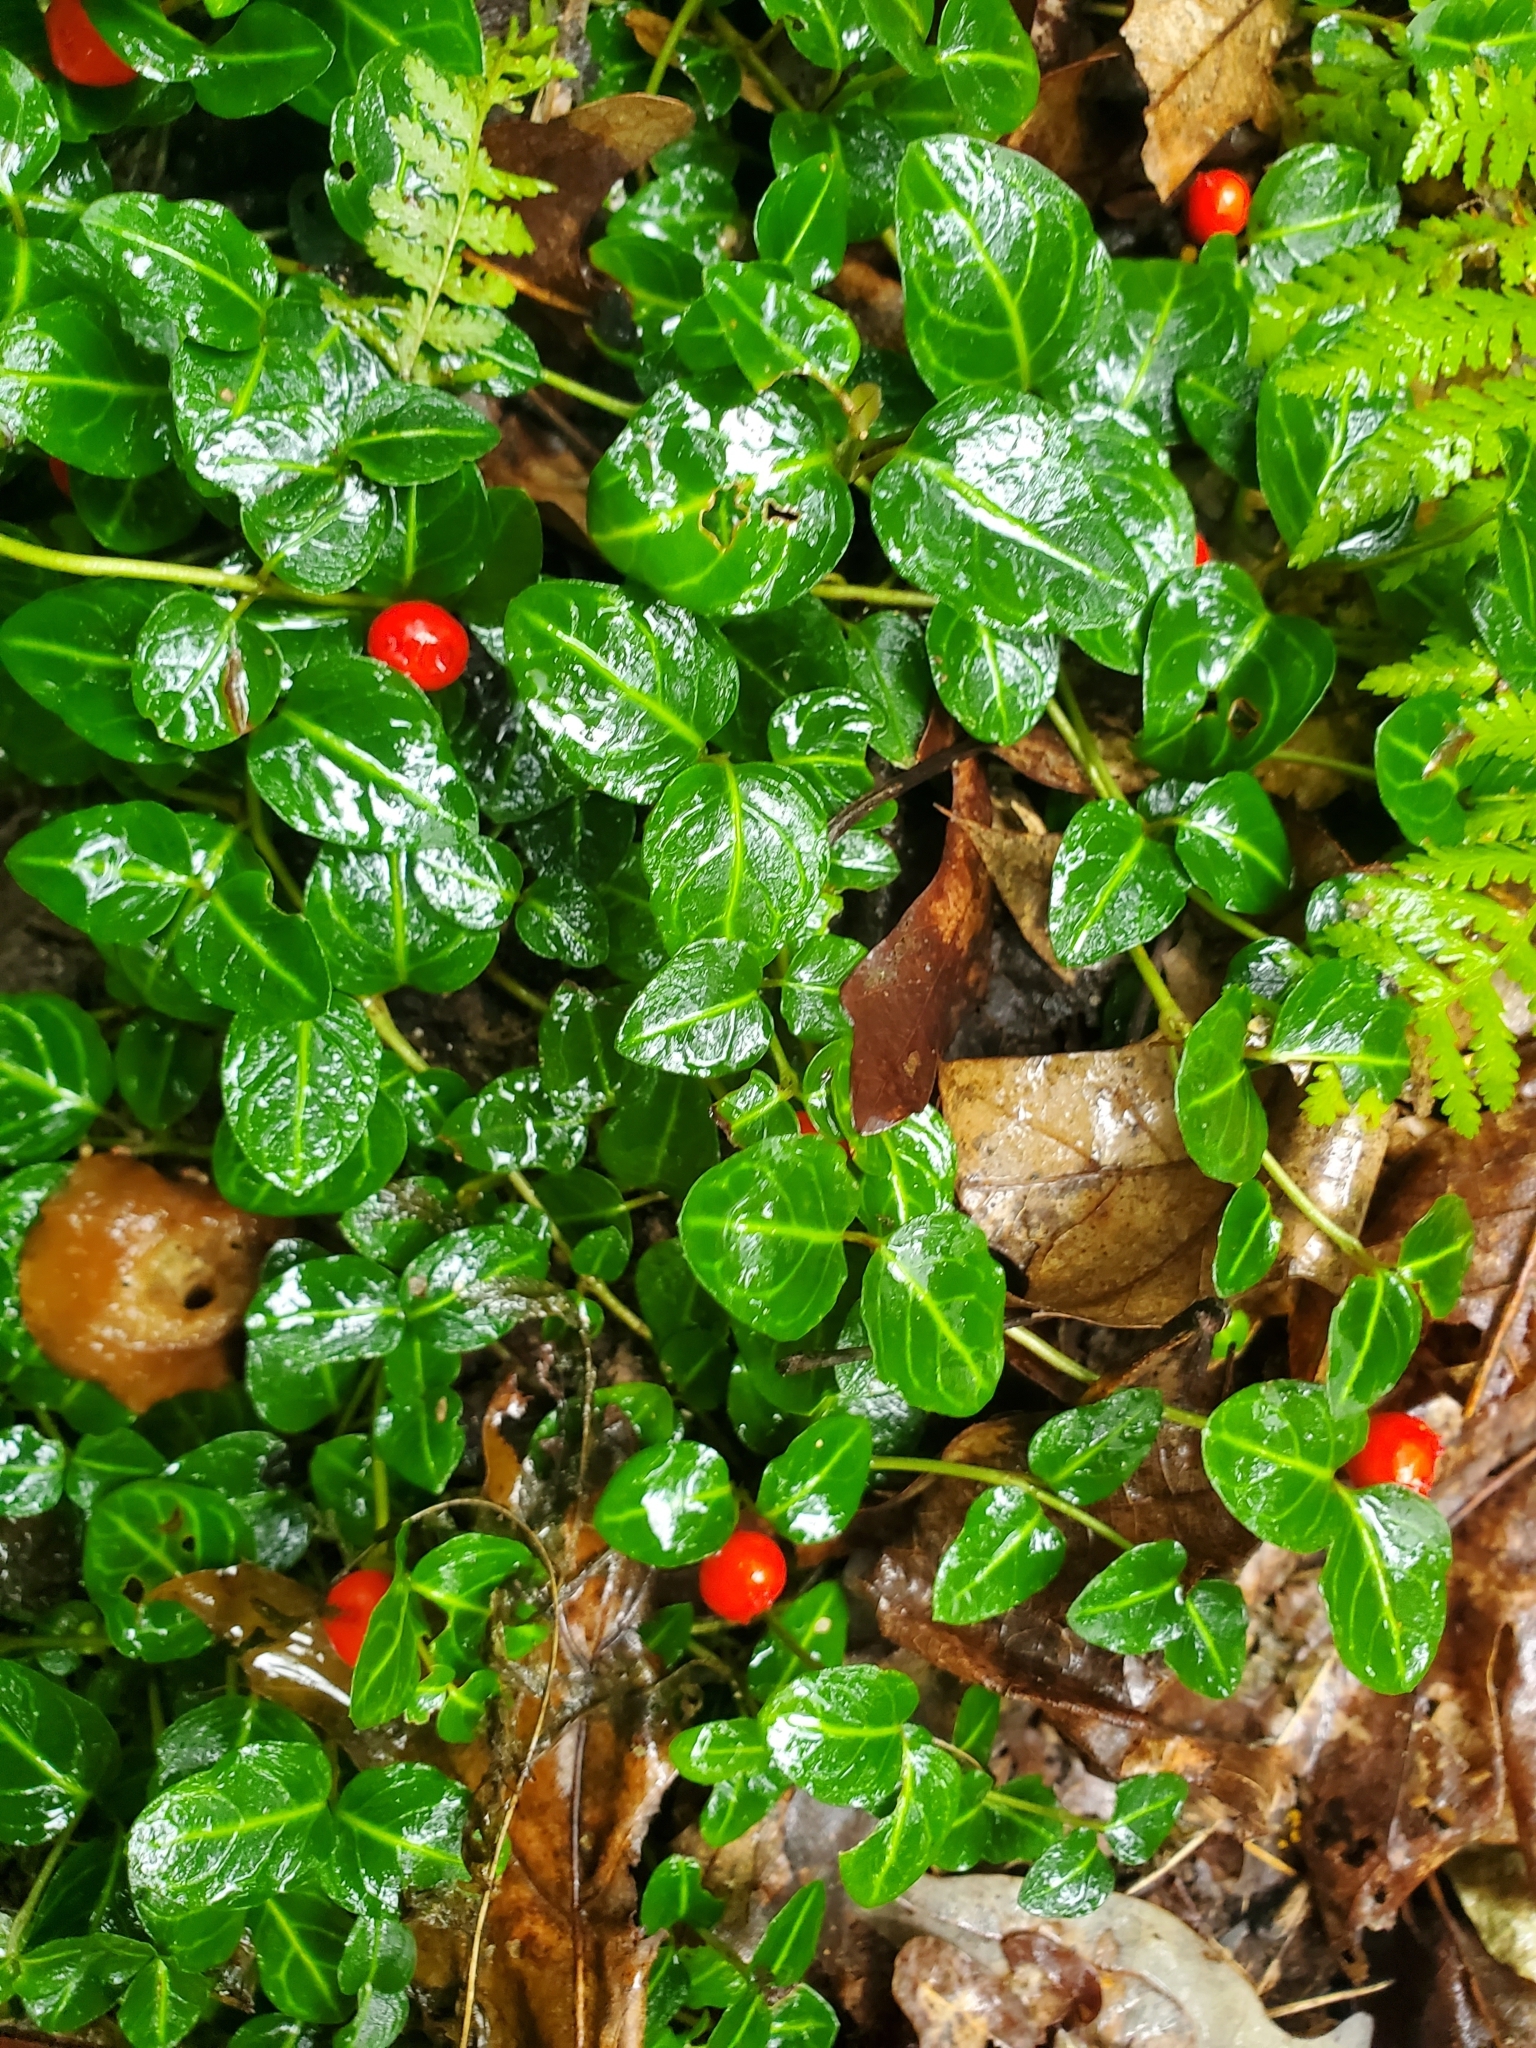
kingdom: Plantae
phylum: Tracheophyta
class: Magnoliopsida
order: Gentianales
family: Rubiaceae
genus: Mitchella
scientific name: Mitchella repens
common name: Partridge-berry
